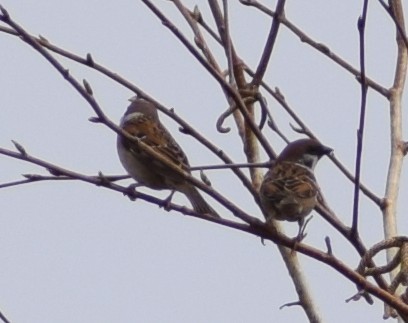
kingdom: Animalia
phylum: Chordata
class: Aves
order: Passeriformes
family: Passeridae
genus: Passer
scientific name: Passer montanus
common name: Eurasian tree sparrow
